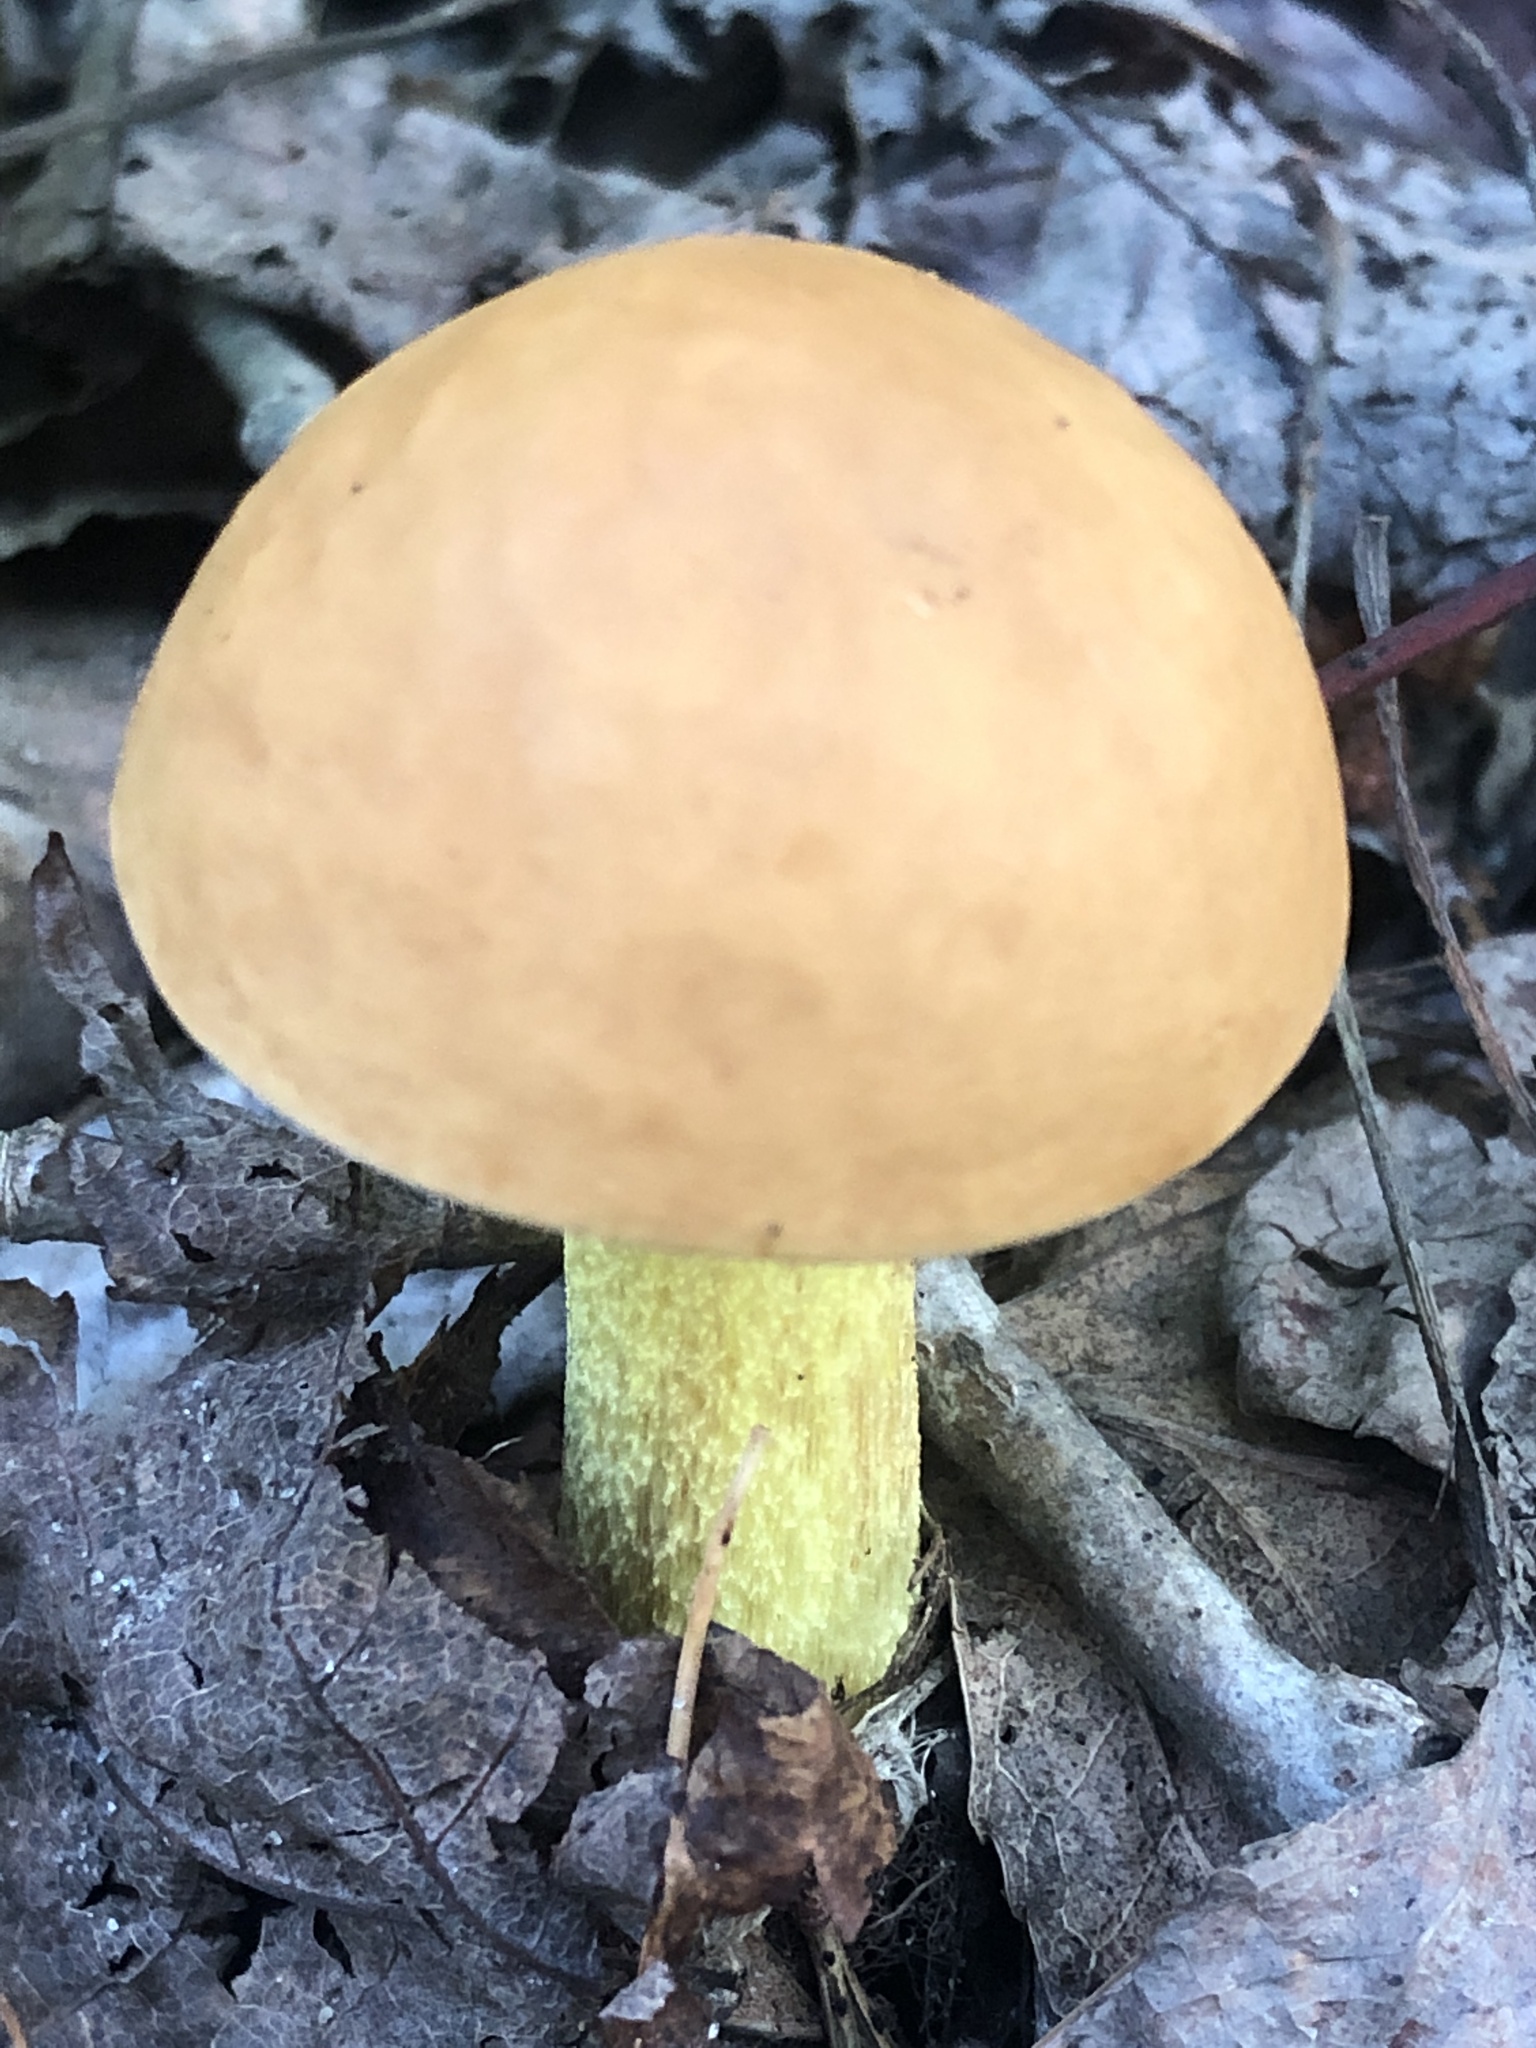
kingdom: Fungi
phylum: Basidiomycota
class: Agaricomycetes
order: Boletales
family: Boletaceae
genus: Hemileccinum
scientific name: Hemileccinum subglabripes
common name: Smoothish-stemmed bolete
